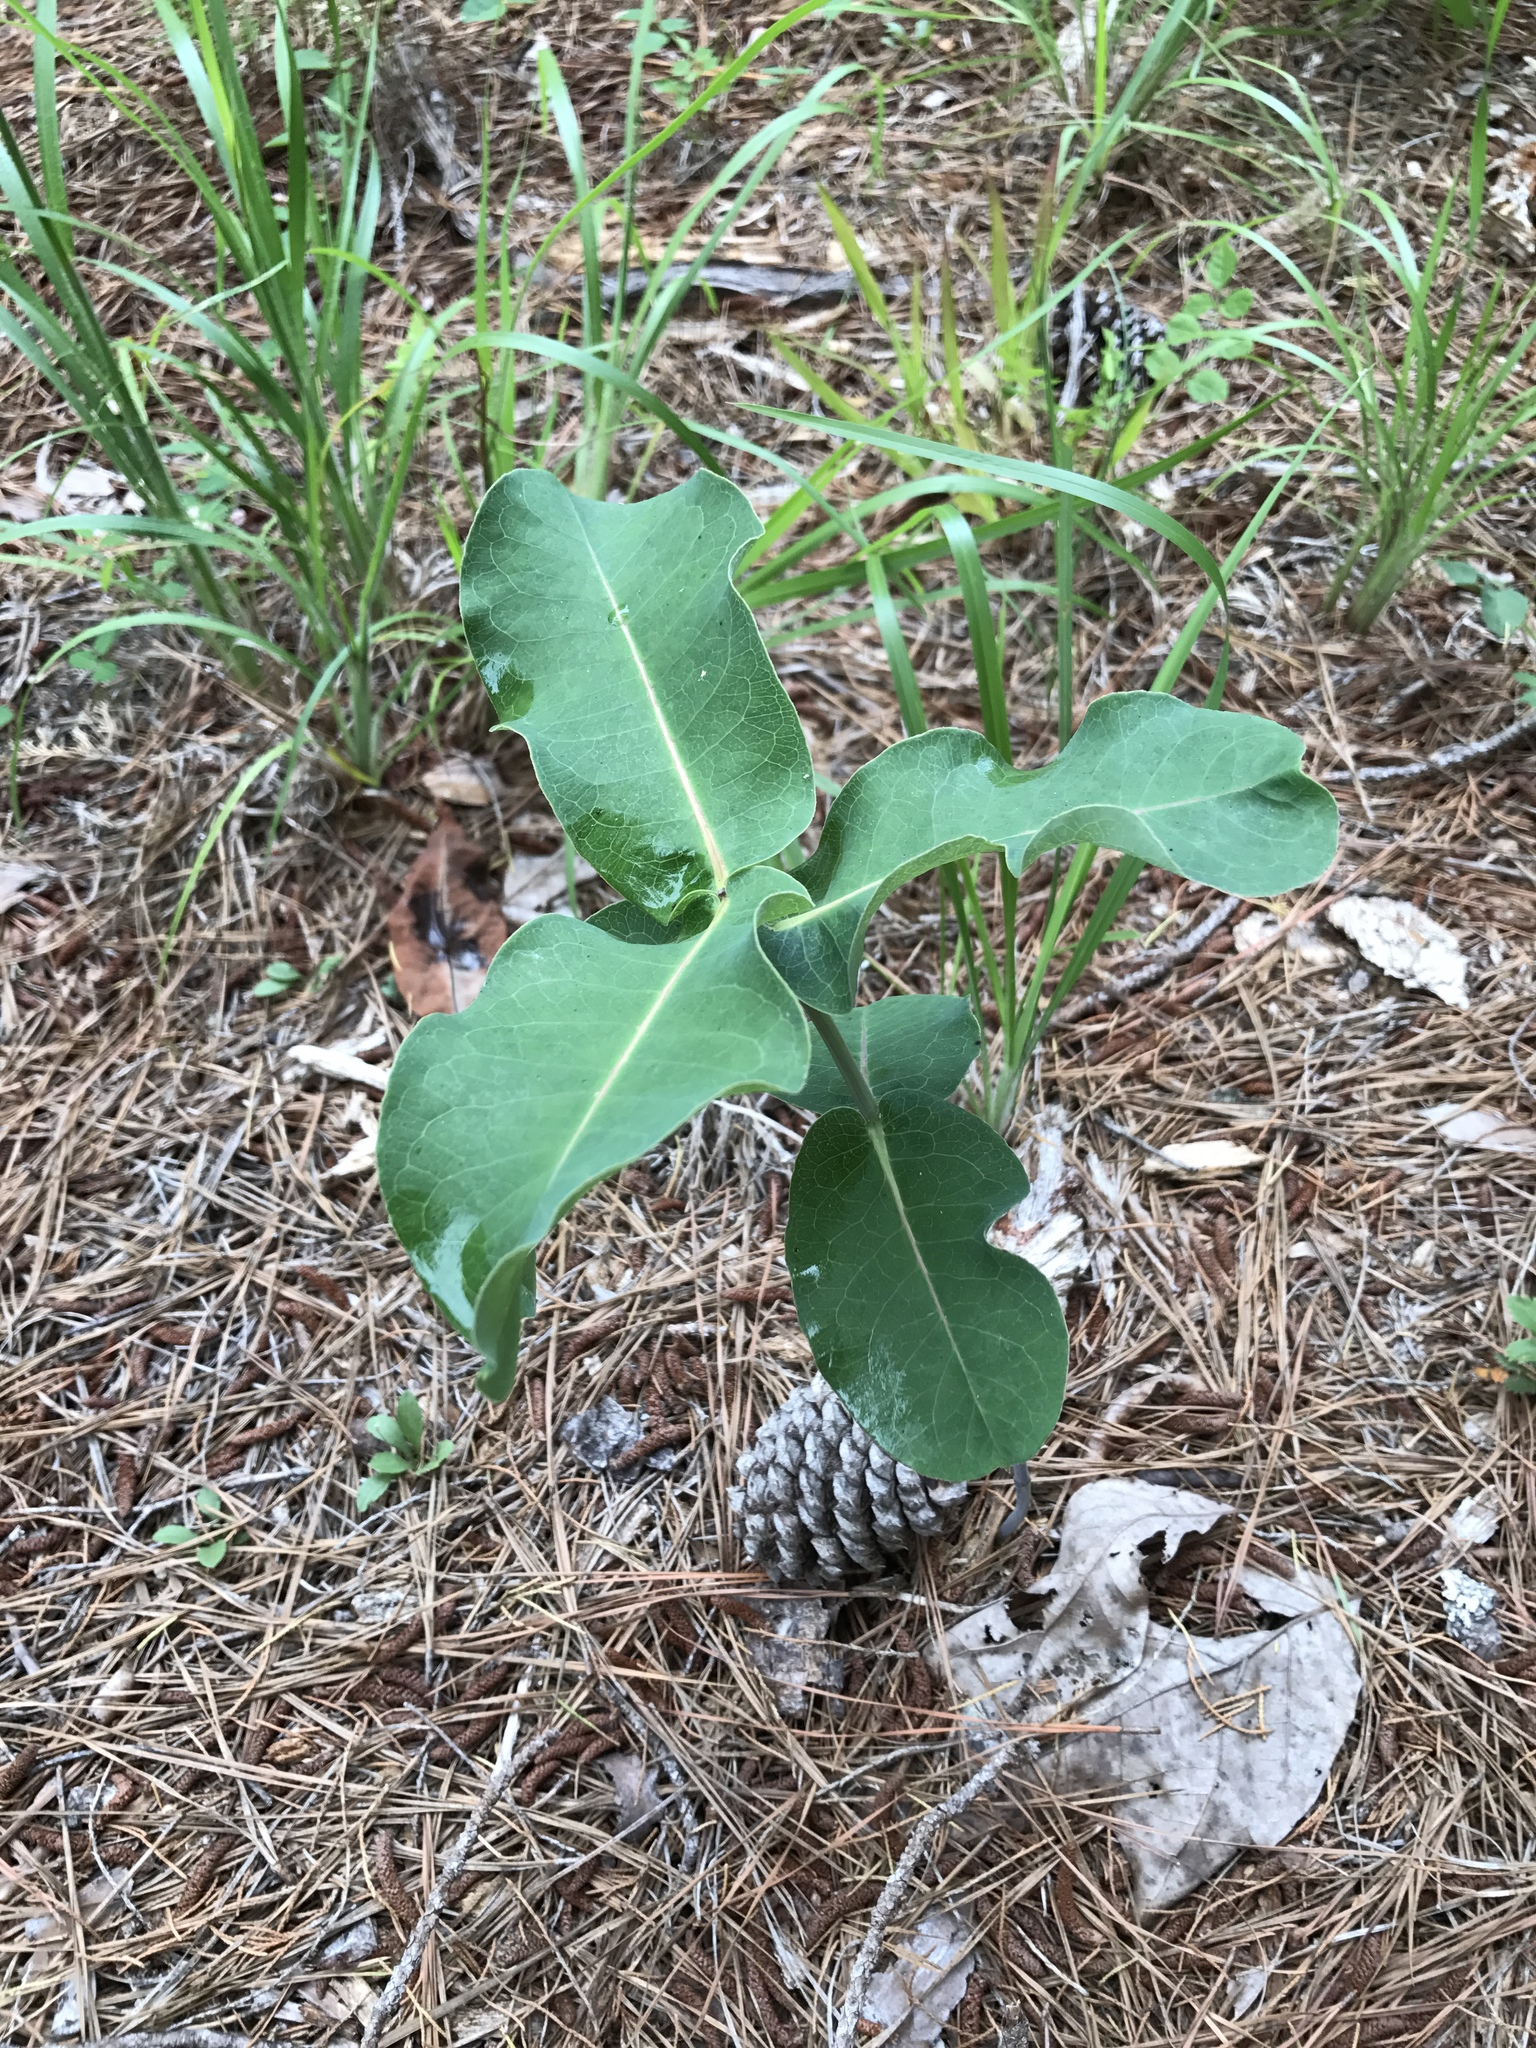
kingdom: Plantae
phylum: Tracheophyta
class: Magnoliopsida
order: Gentianales
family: Apocynaceae
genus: Asclepias
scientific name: Asclepias amplexicaulis
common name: Blunt-leaf milkweed
